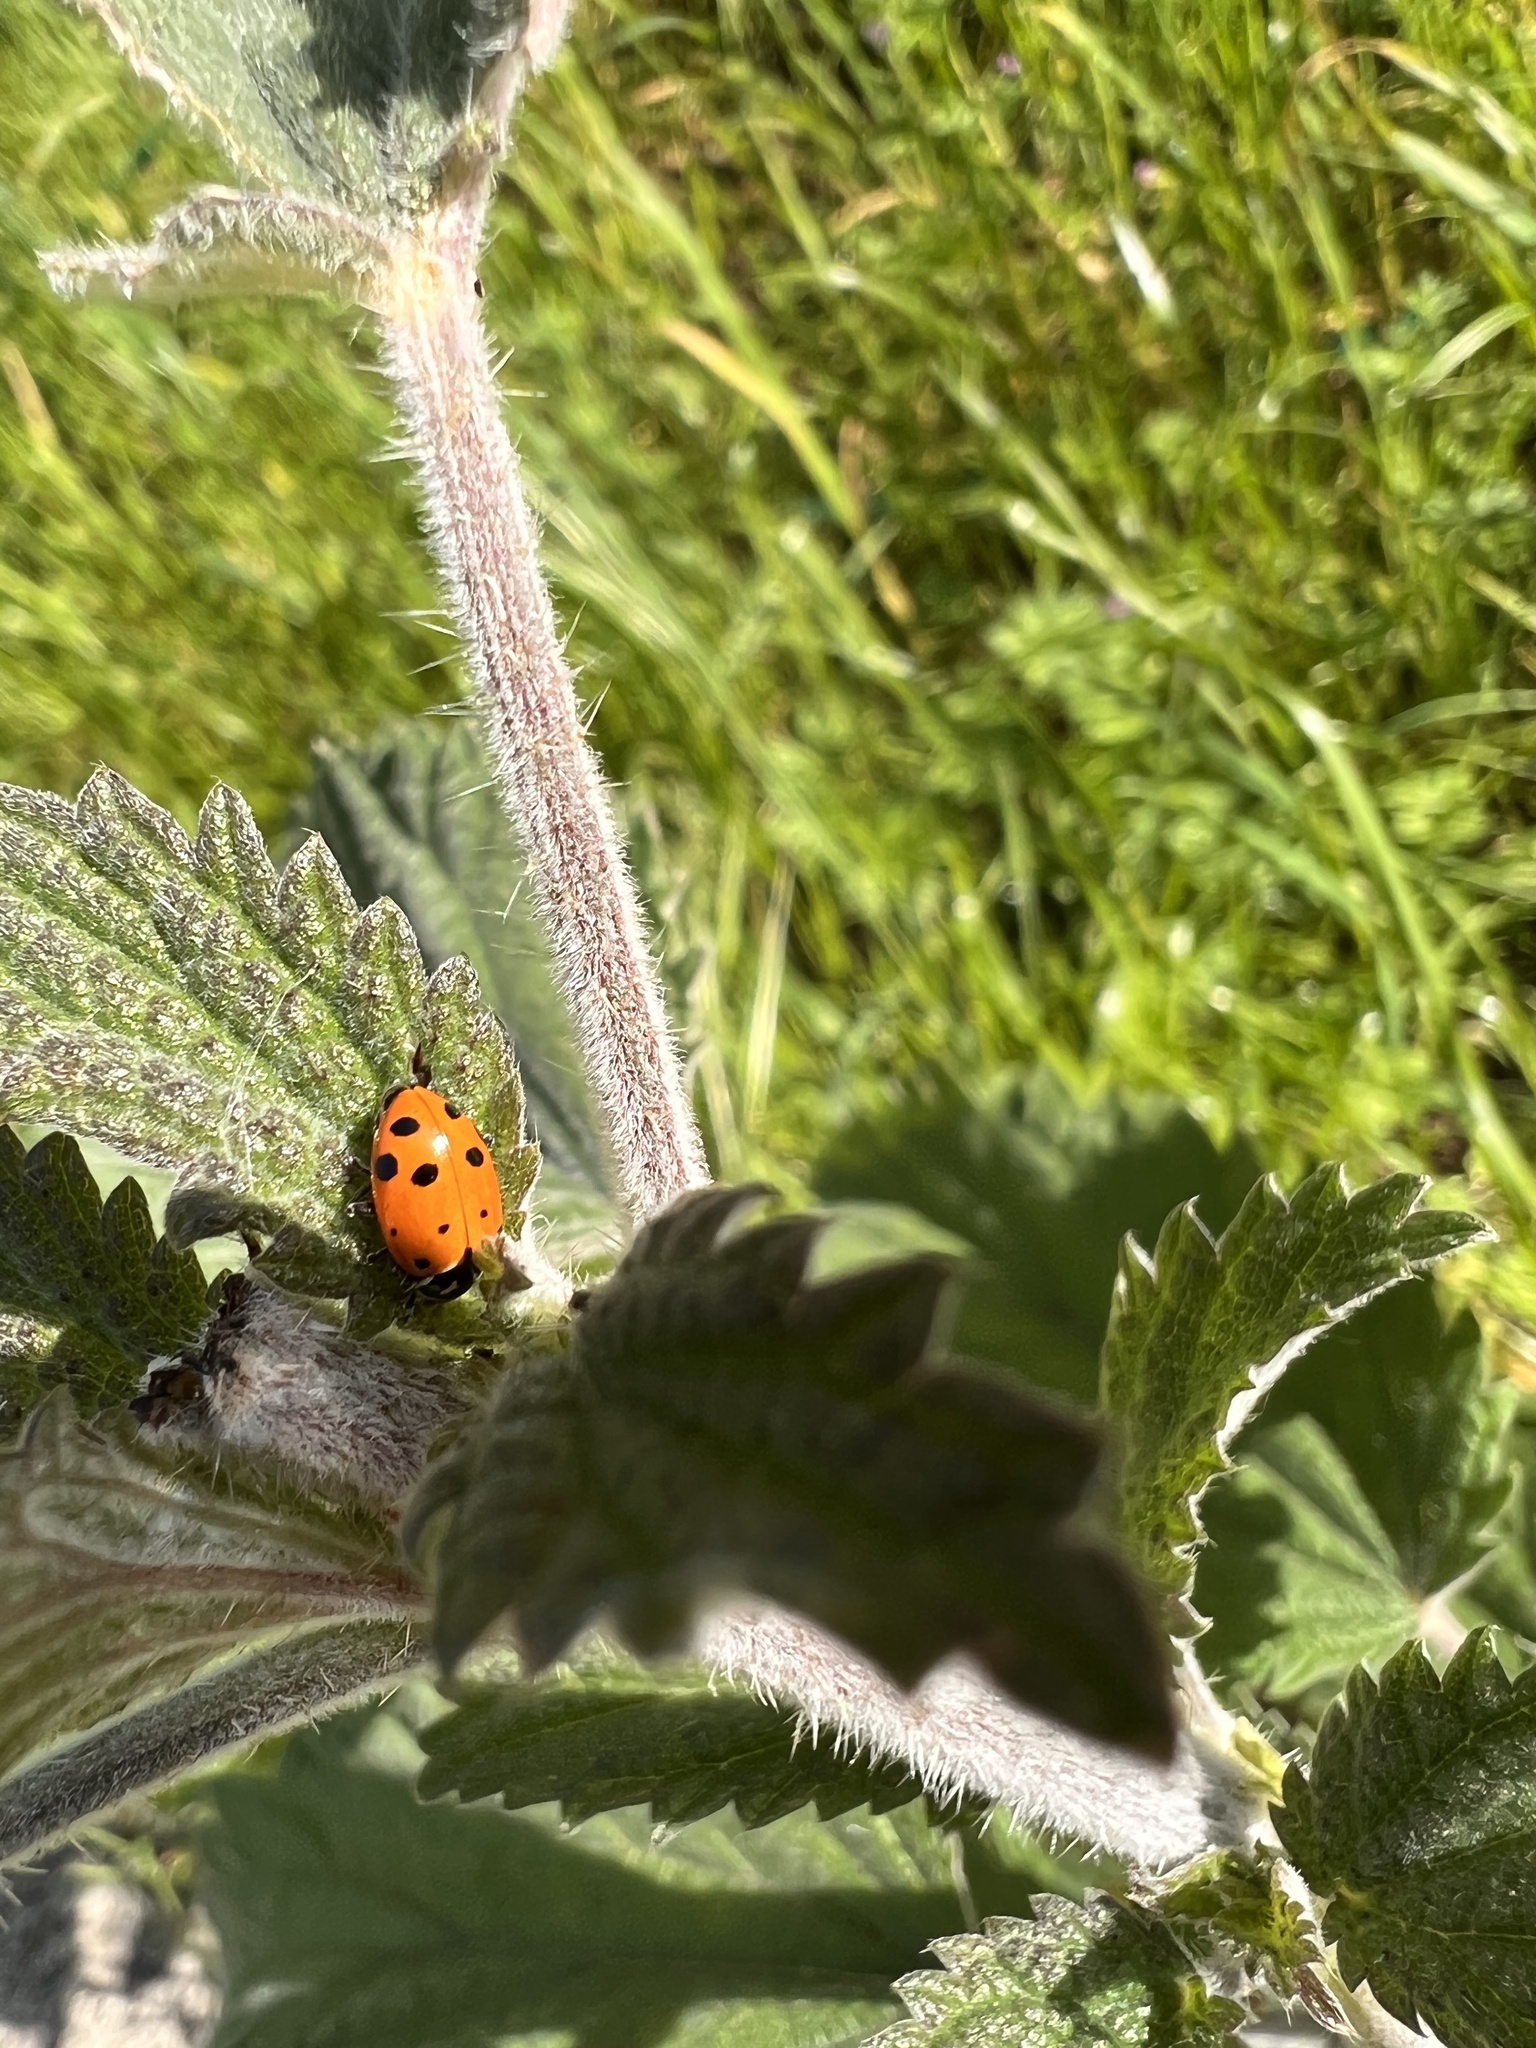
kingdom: Animalia
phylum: Arthropoda
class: Insecta
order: Coleoptera
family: Coccinellidae
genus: Hippodamia
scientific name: Hippodamia convergens
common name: Convergent lady beetle
